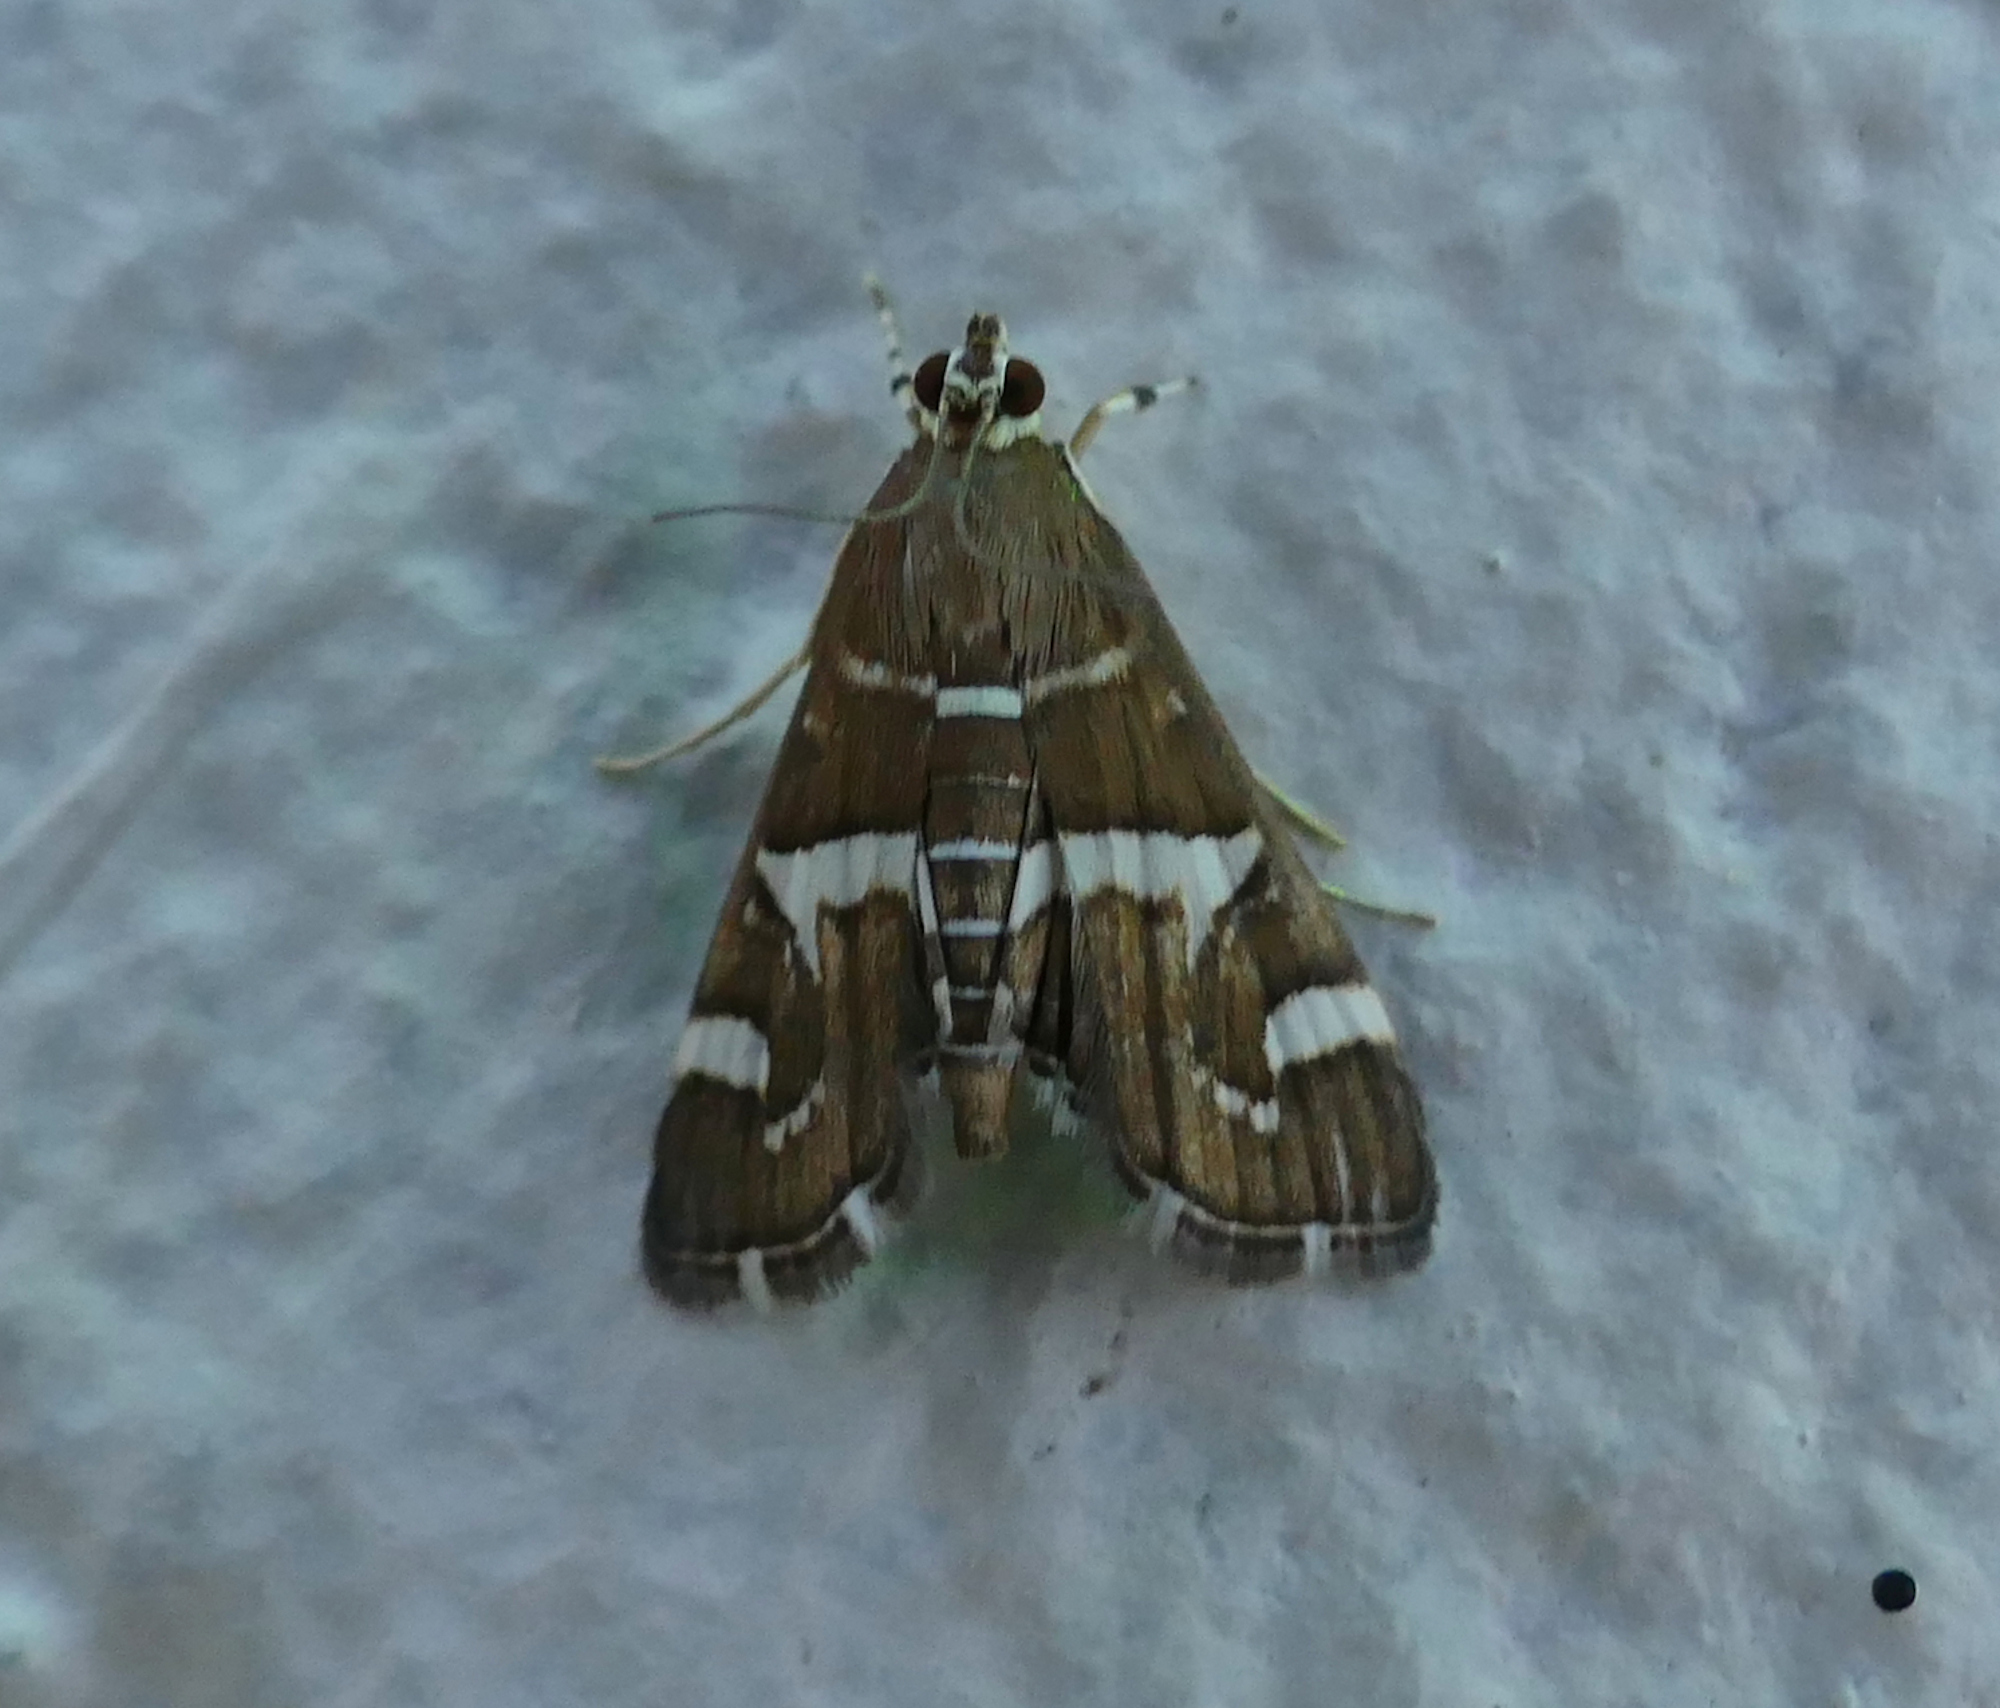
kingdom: Animalia
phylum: Arthropoda
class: Insecta
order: Lepidoptera
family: Crambidae
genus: Spoladea
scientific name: Spoladea recurvalis
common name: Beet webworm moth
